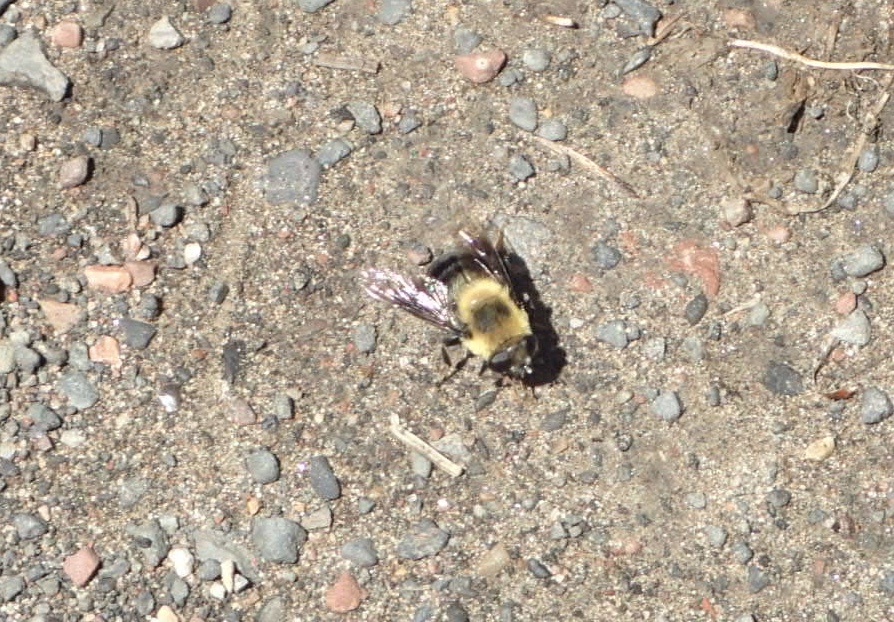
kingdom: Animalia
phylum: Arthropoda
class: Insecta
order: Diptera
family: Syrphidae
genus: Eristalis
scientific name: Eristalis anthophorina
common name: Orange-spotted drone fly
